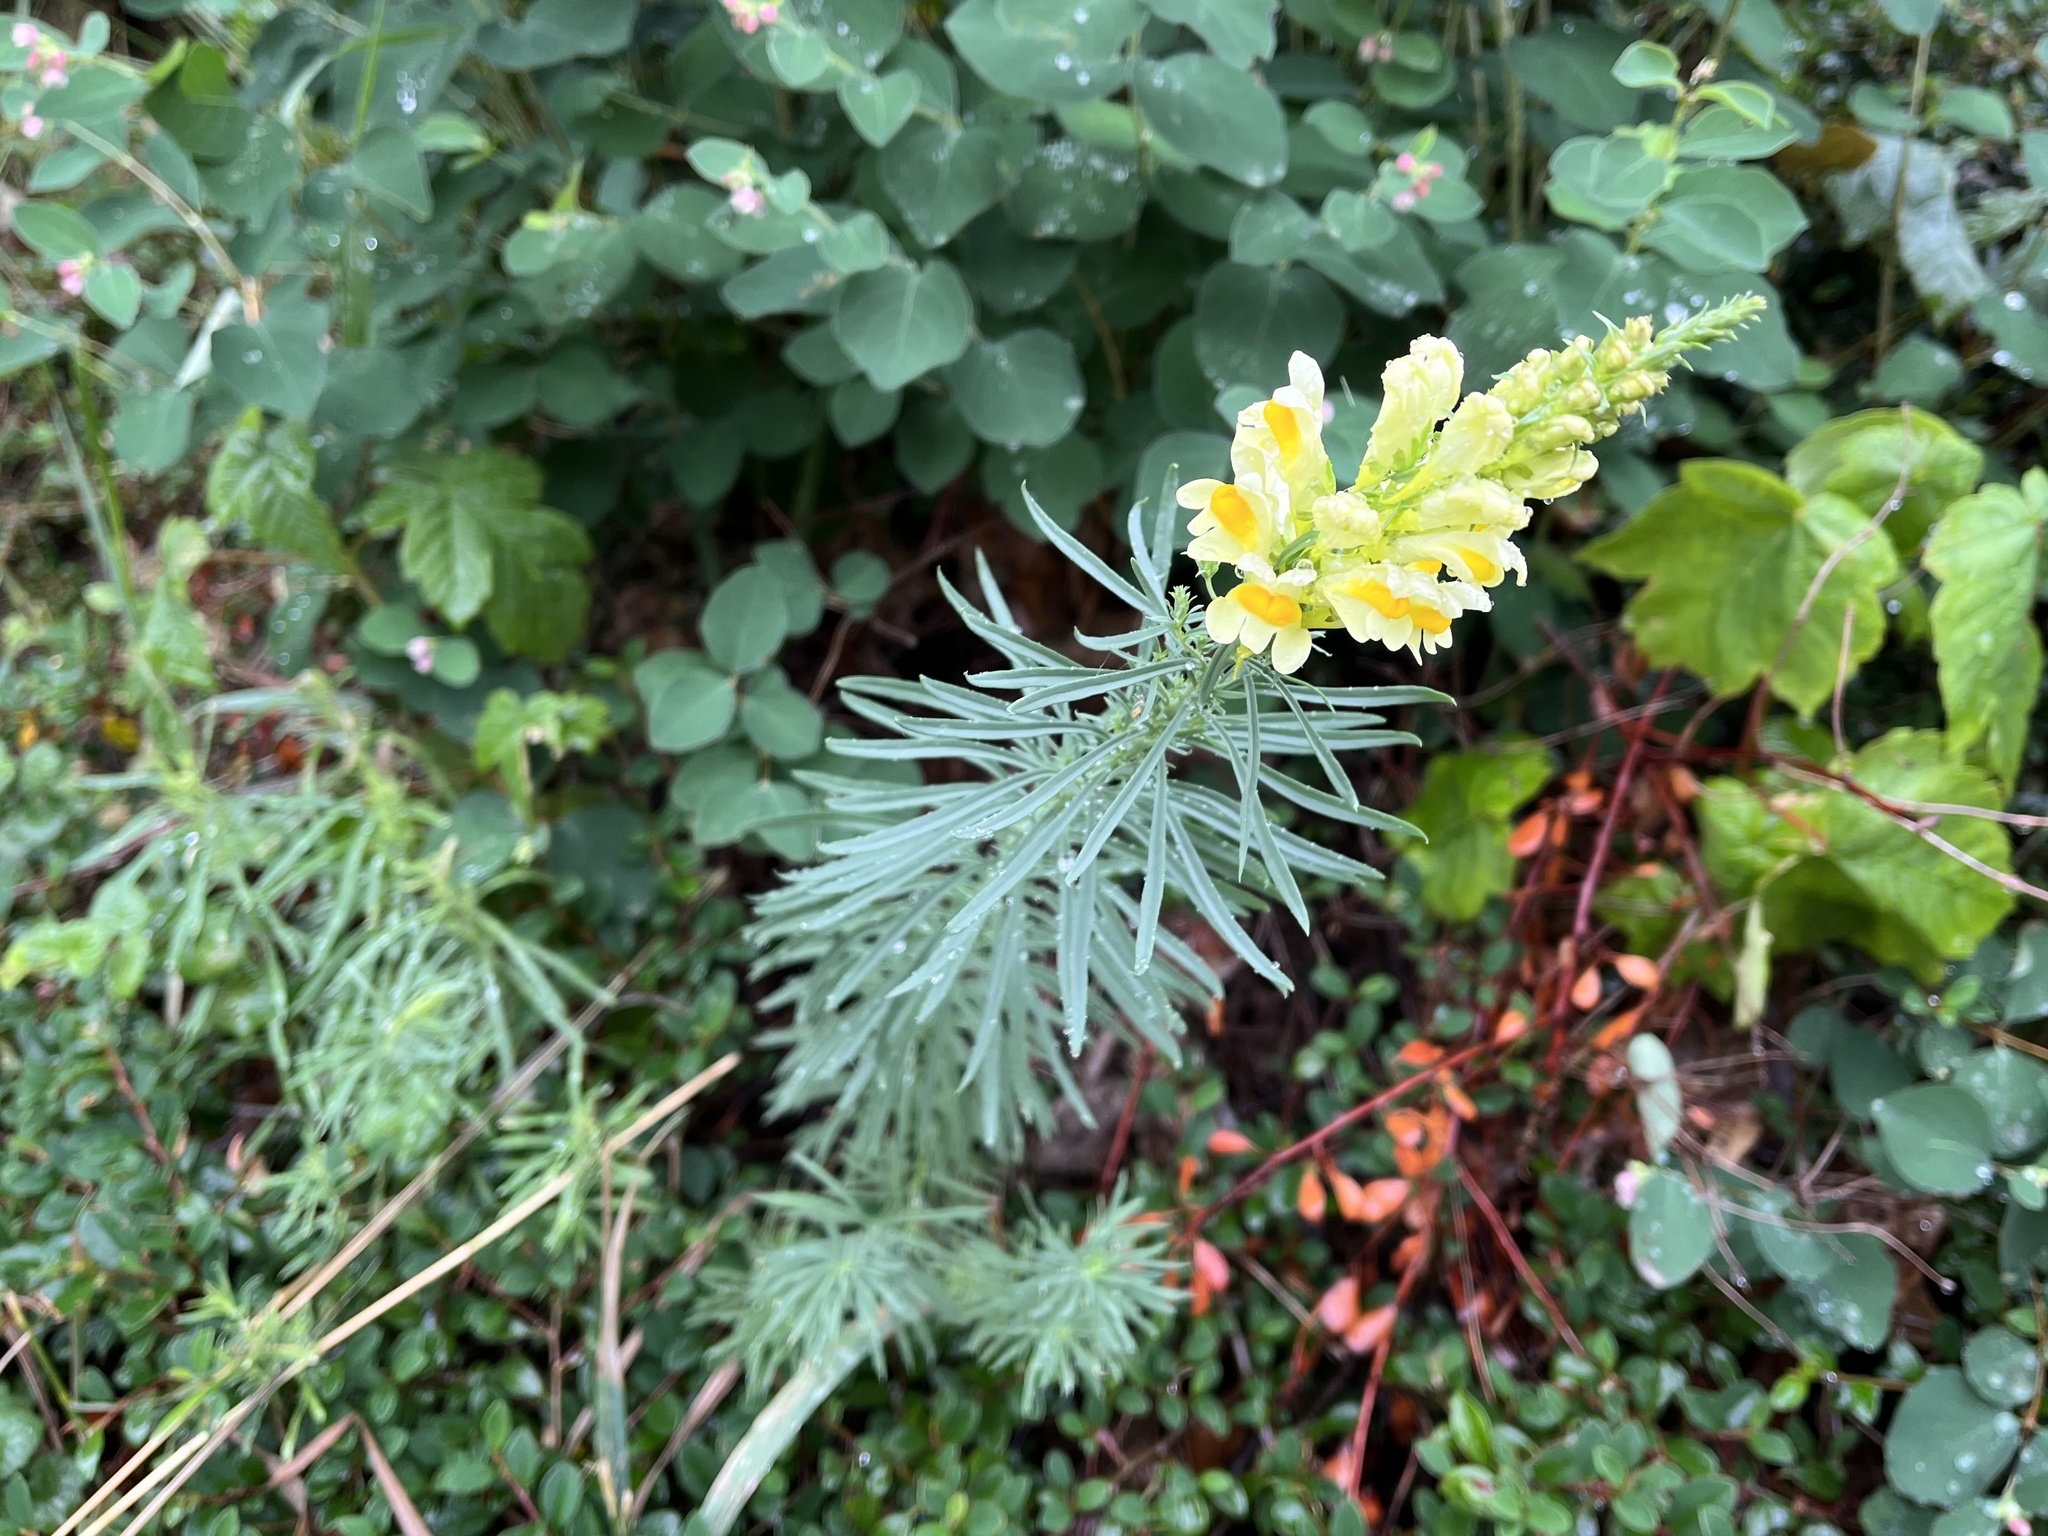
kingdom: Plantae
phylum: Tracheophyta
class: Magnoliopsida
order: Lamiales
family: Plantaginaceae
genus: Linaria
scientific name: Linaria vulgaris
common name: Butter and eggs
